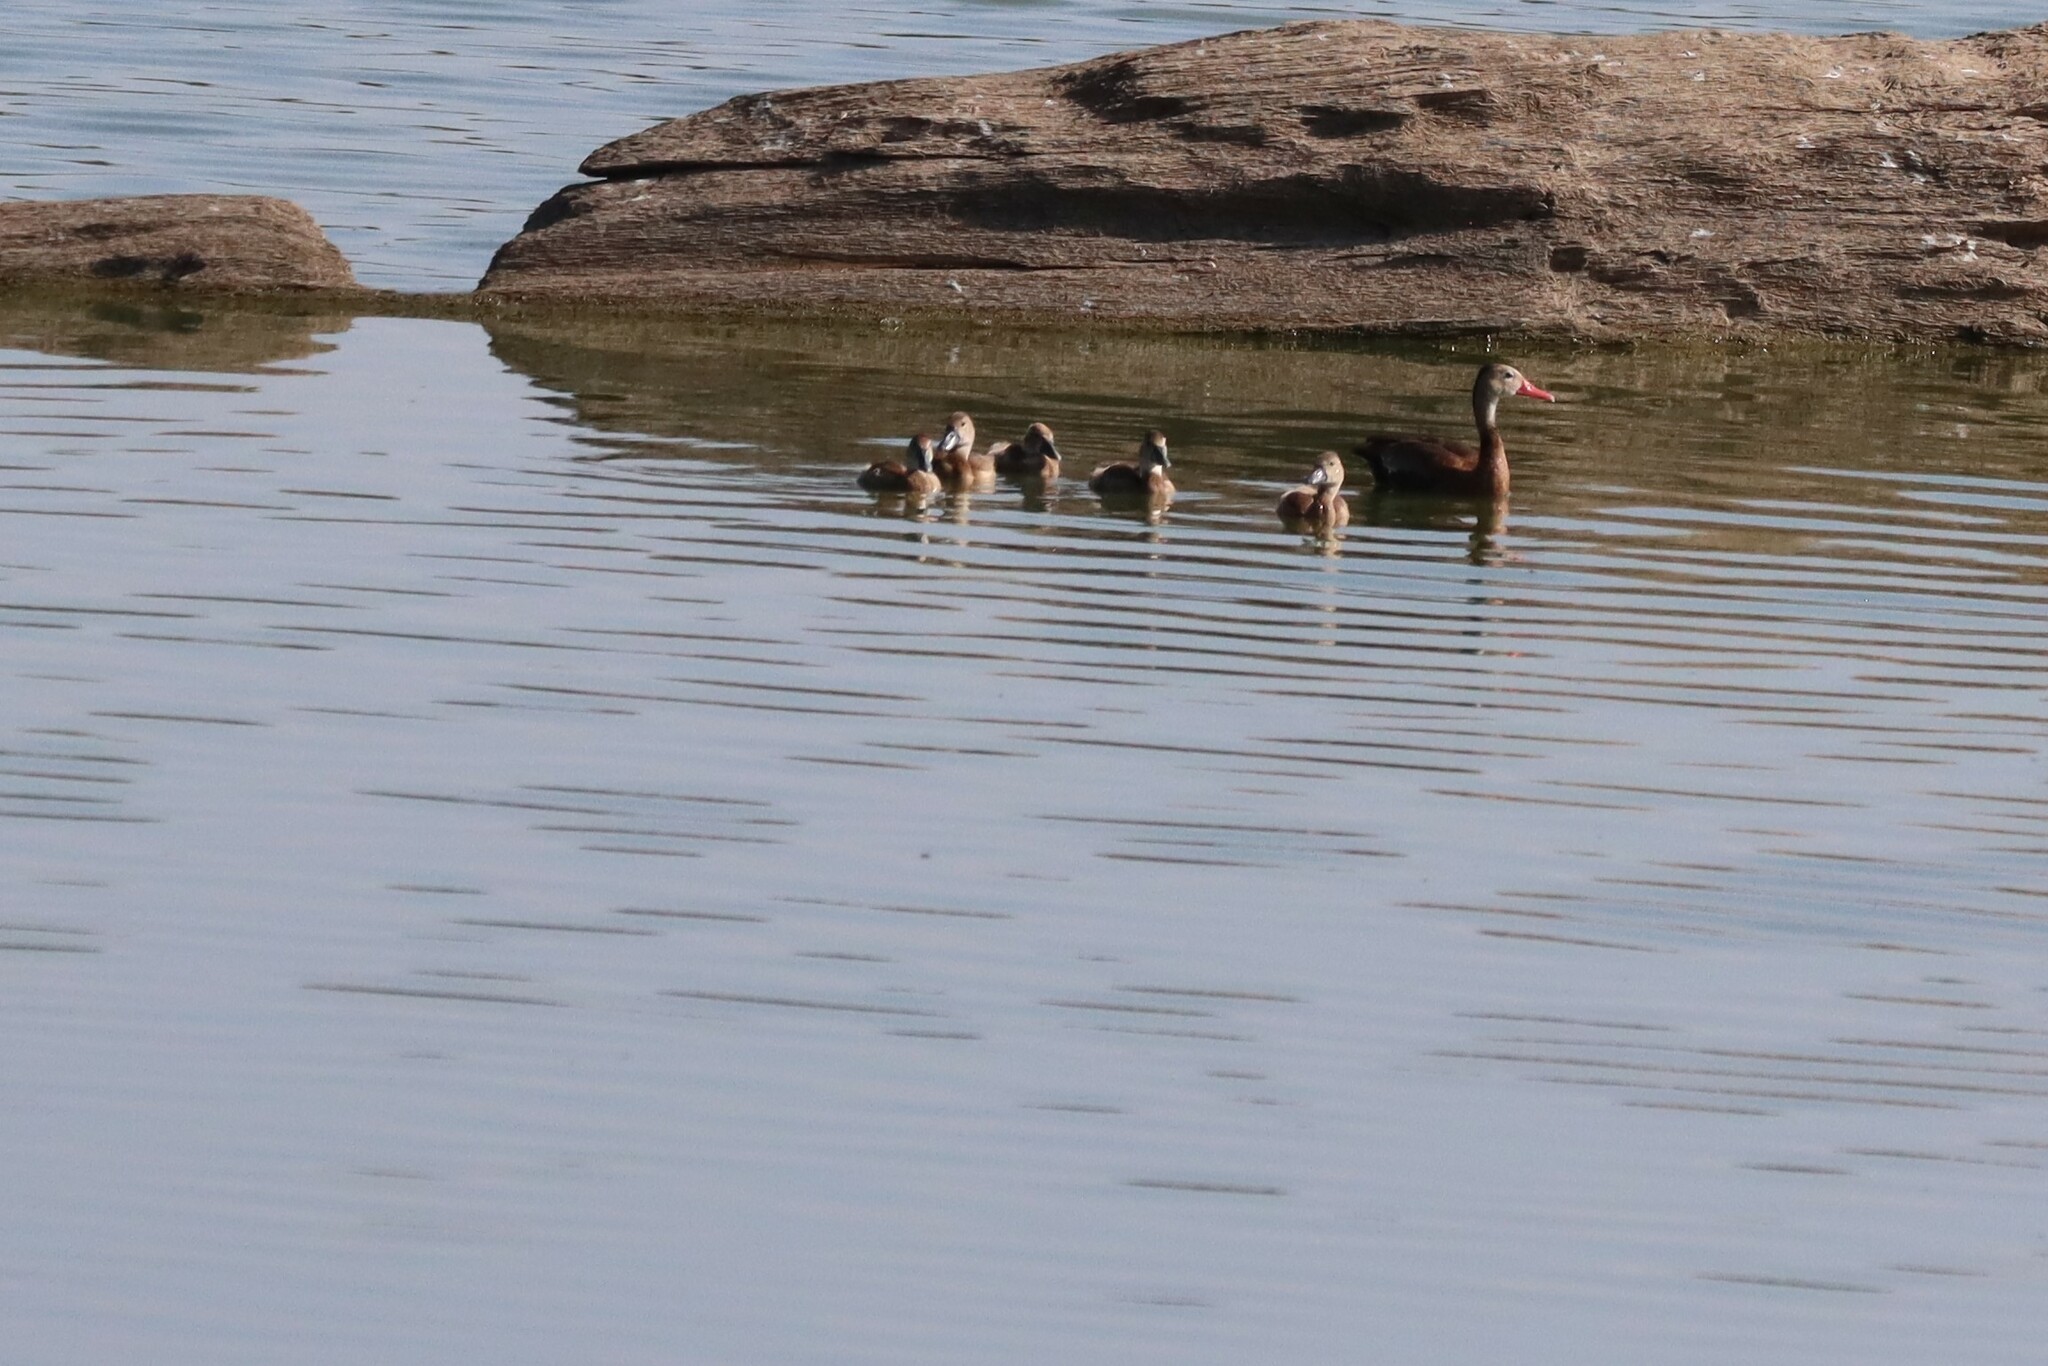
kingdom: Animalia
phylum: Chordata
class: Aves
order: Anseriformes
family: Anatidae
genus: Dendrocygna
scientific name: Dendrocygna autumnalis
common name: Black-bellied whistling duck
